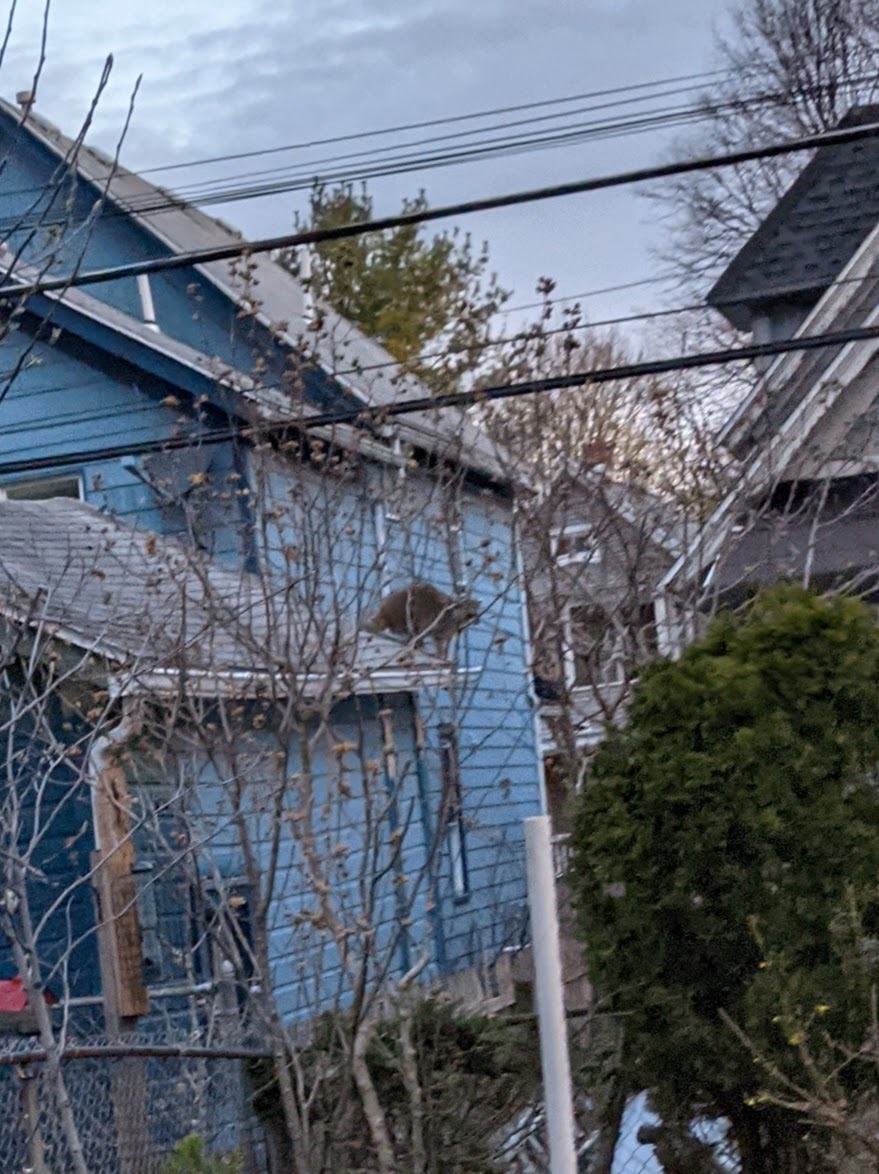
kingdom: Animalia
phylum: Chordata
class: Mammalia
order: Carnivora
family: Procyonidae
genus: Procyon
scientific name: Procyon lotor
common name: Raccoon
